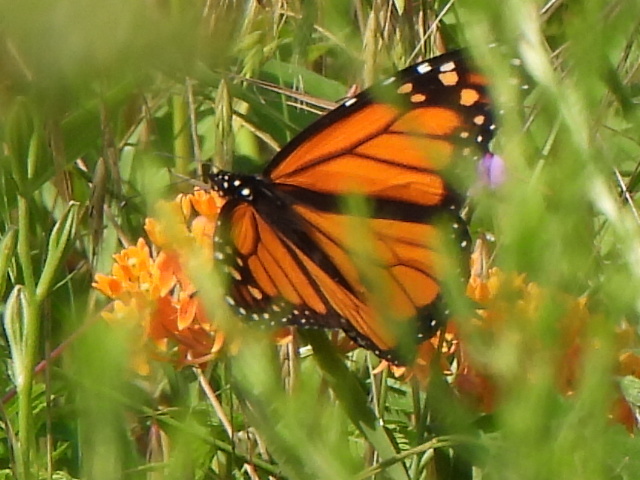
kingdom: Animalia
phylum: Arthropoda
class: Insecta
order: Lepidoptera
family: Nymphalidae
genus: Danaus
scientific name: Danaus plexippus
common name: Monarch
